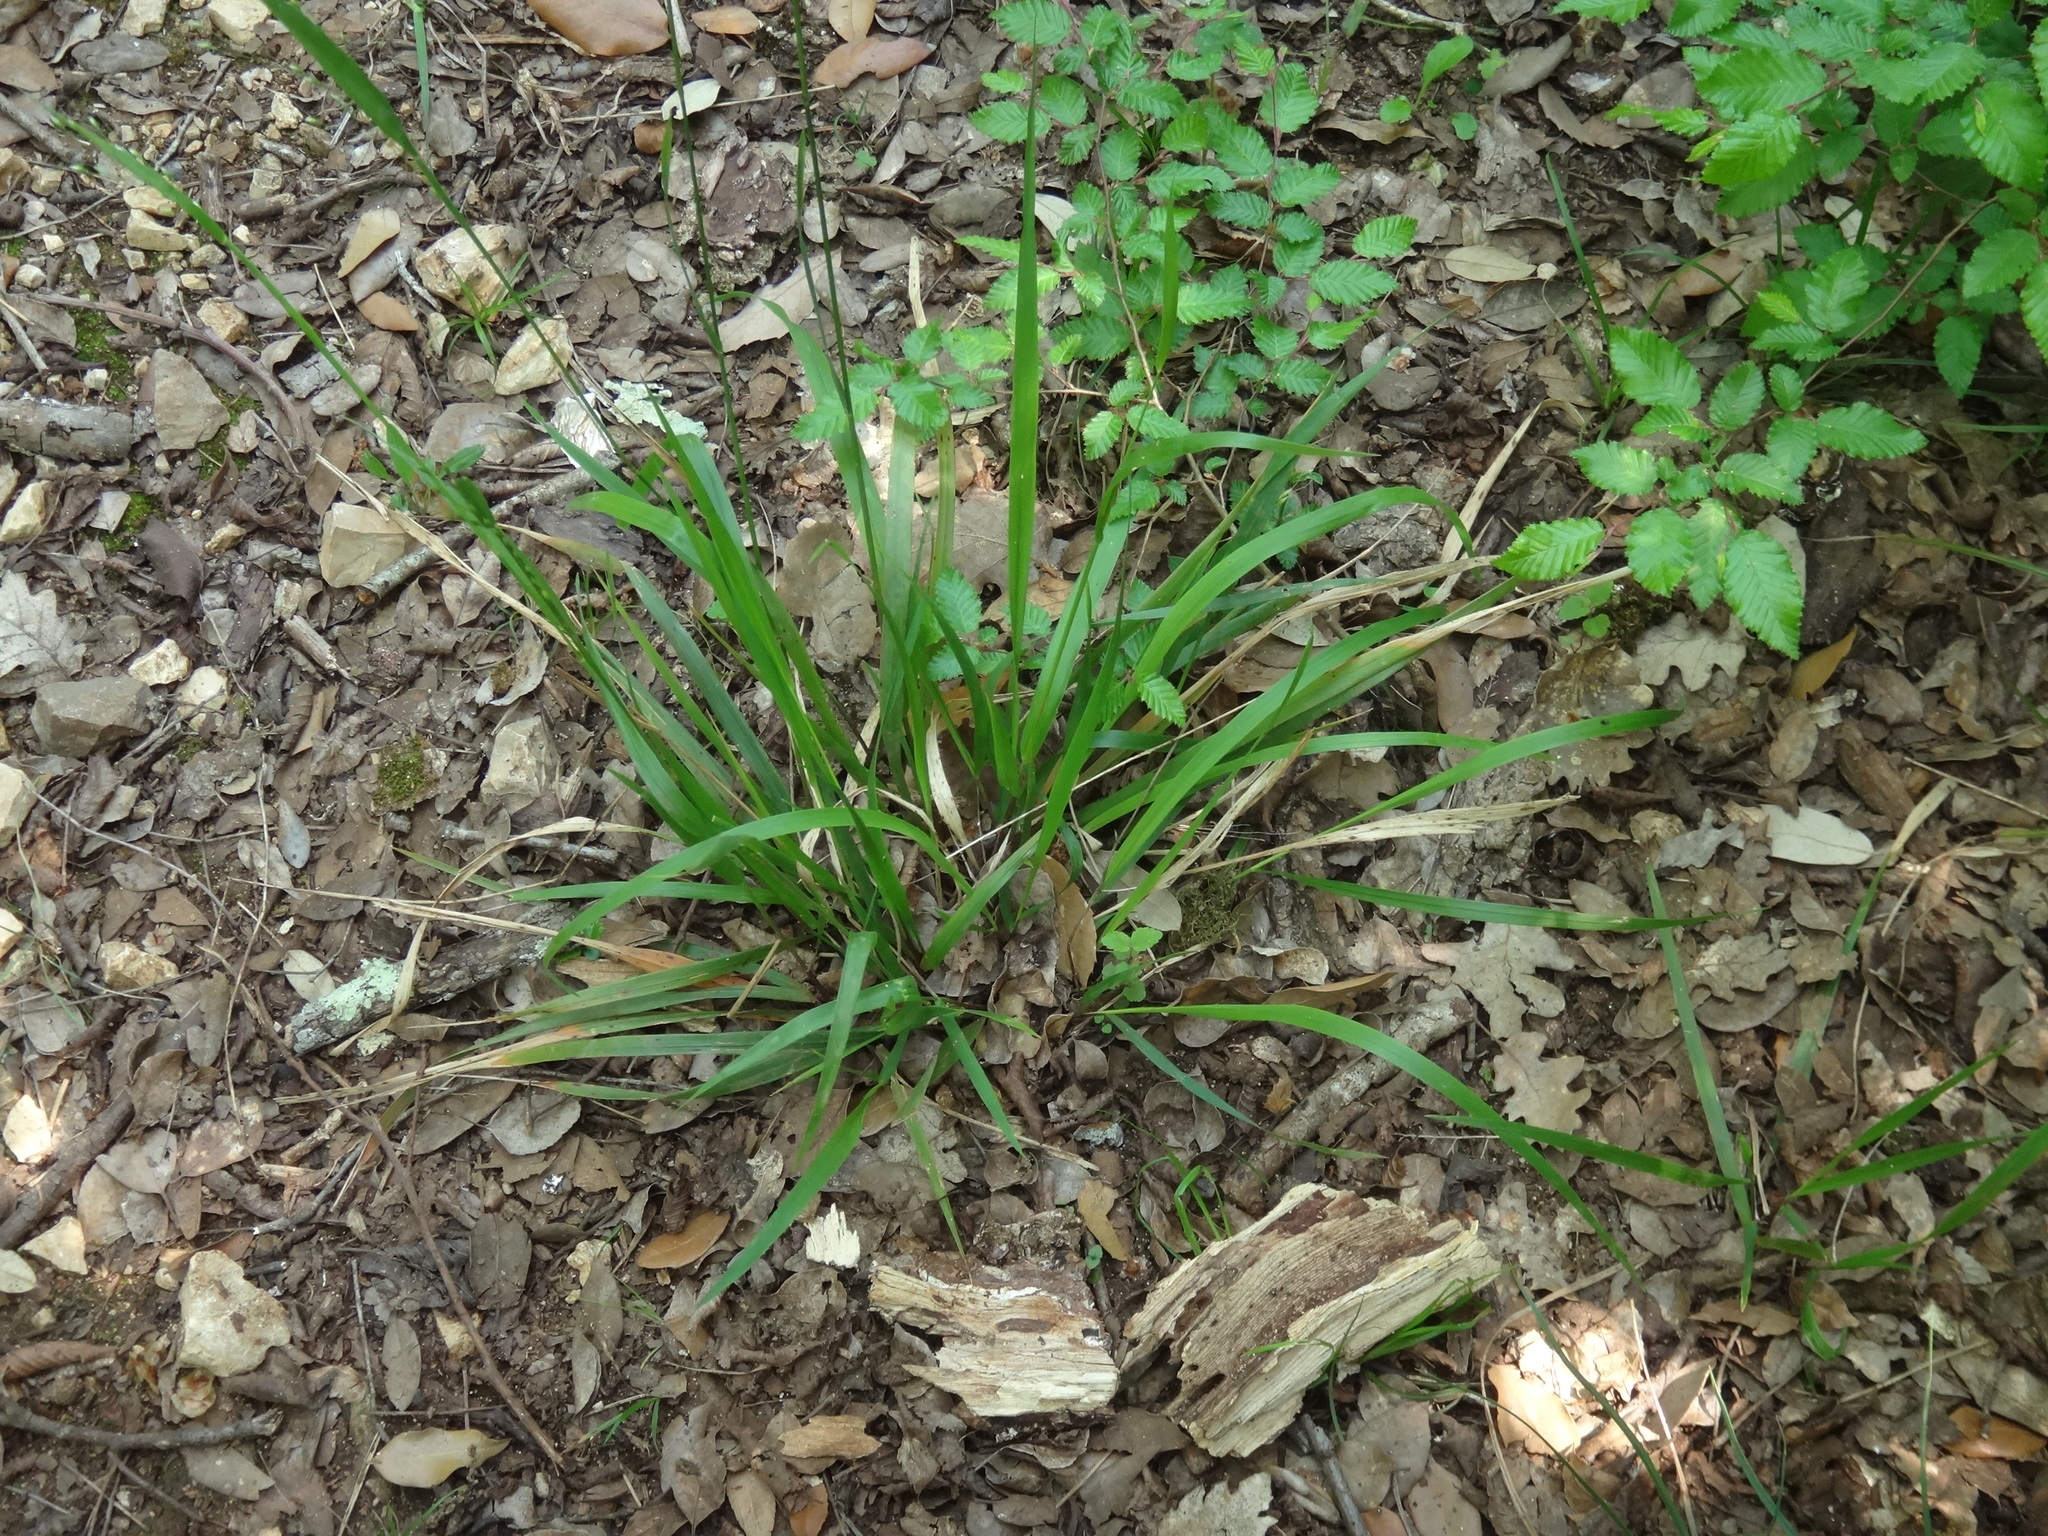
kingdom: Plantae
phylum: Tracheophyta
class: Liliopsida
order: Poales
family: Poaceae
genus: Achnatherum
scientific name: Achnatherum virescens
